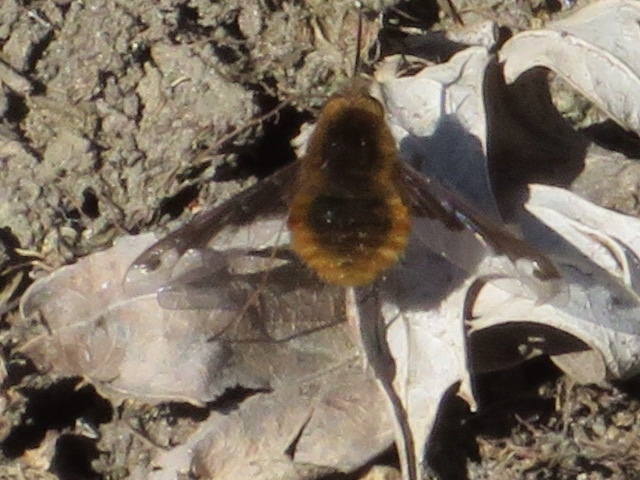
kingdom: Animalia
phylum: Arthropoda
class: Insecta
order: Diptera
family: Bombyliidae
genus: Bombylius
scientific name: Bombylius major
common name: Bee fly
